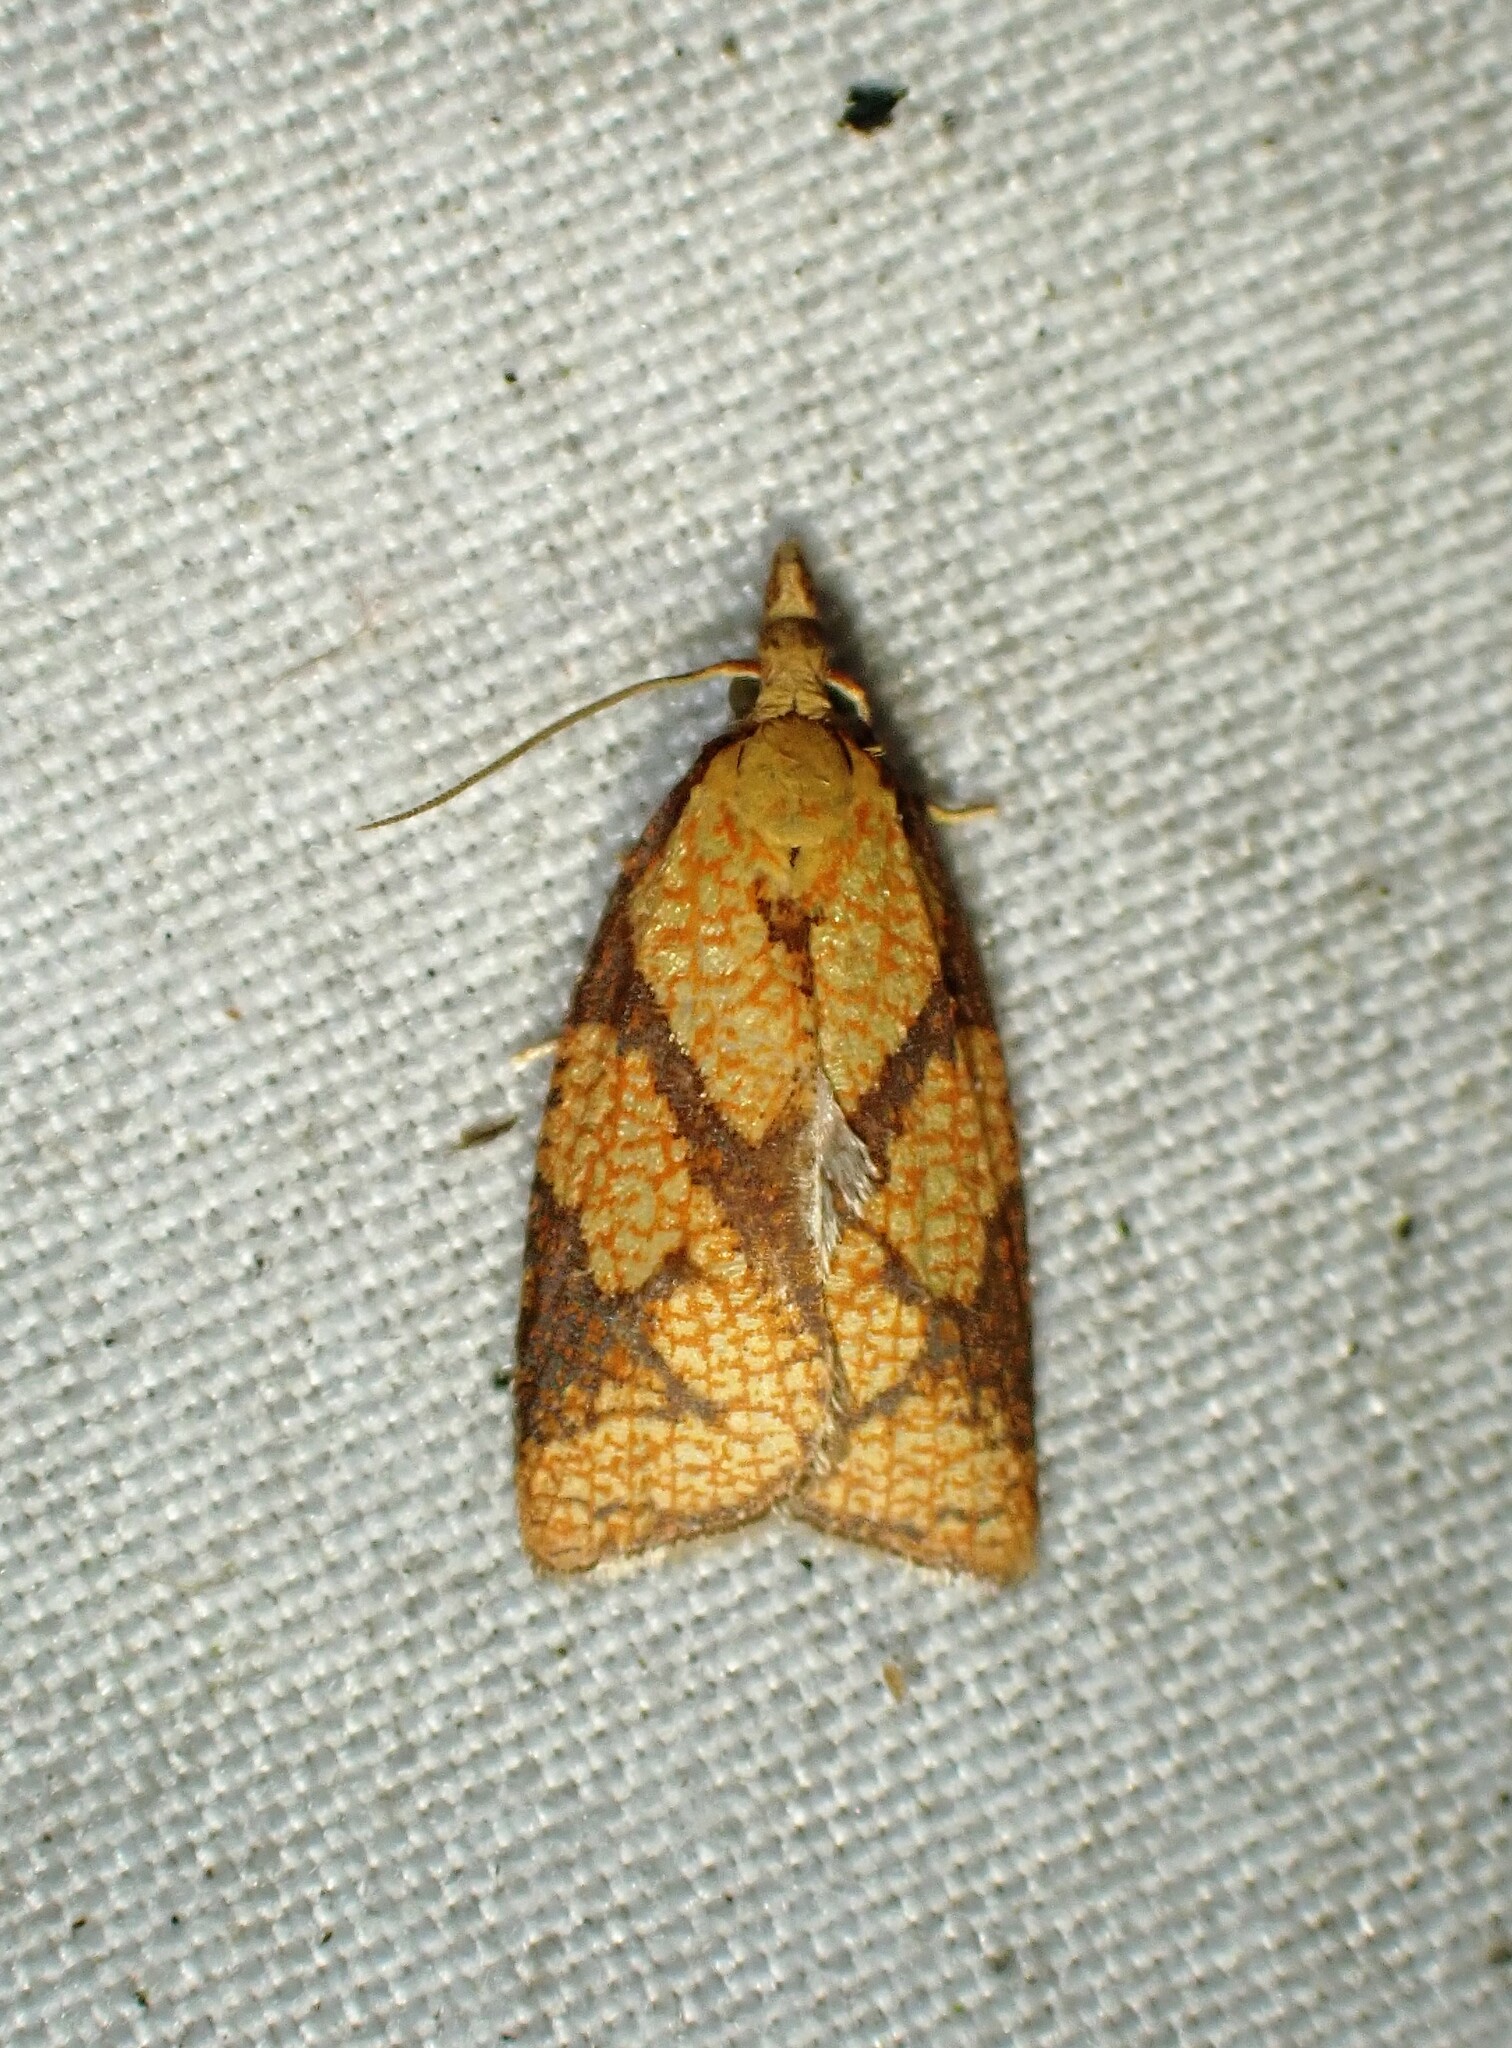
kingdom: Animalia
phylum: Arthropoda
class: Insecta
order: Lepidoptera
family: Tortricidae
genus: Cenopis
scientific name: Cenopis reticulatana
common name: Reticulated fruitworm moth
